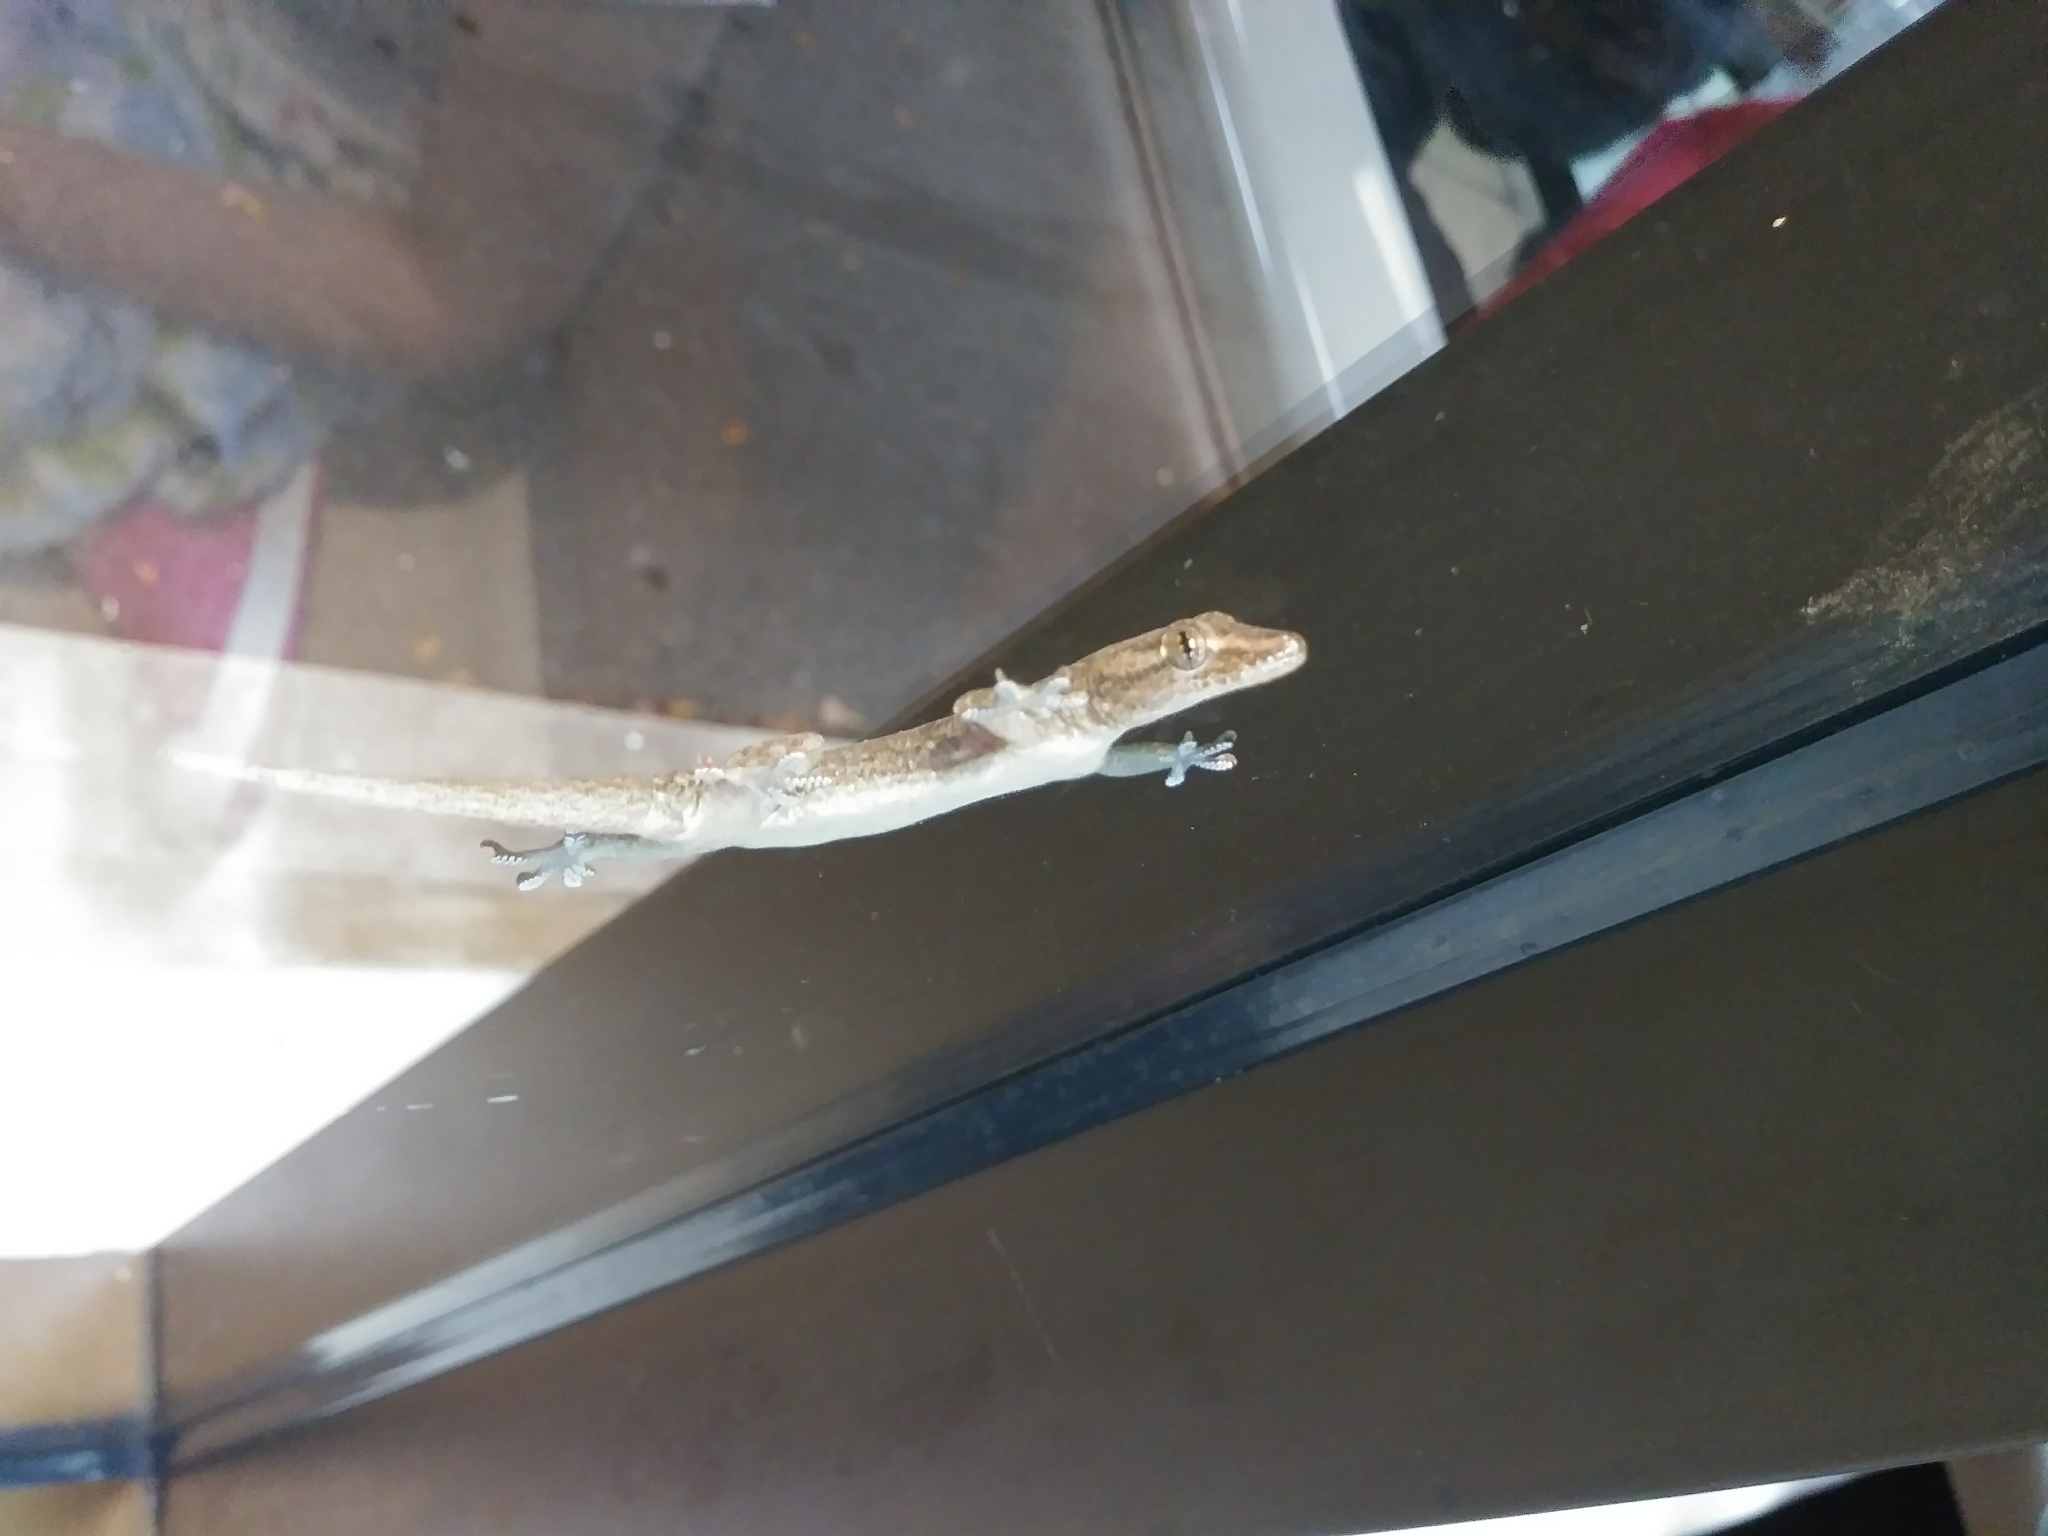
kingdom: Animalia
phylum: Chordata
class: Squamata
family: Gekkonidae
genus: Hemidactylus
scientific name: Hemidactylus frenatus
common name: Common house gecko
